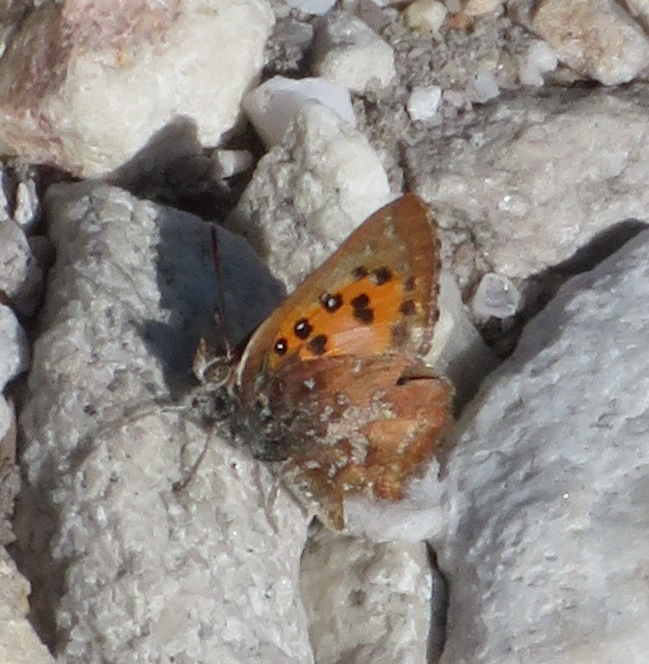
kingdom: Animalia
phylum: Arthropoda
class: Insecta
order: Lepidoptera
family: Lycaenidae
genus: Aloeides
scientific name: Aloeides thyra
